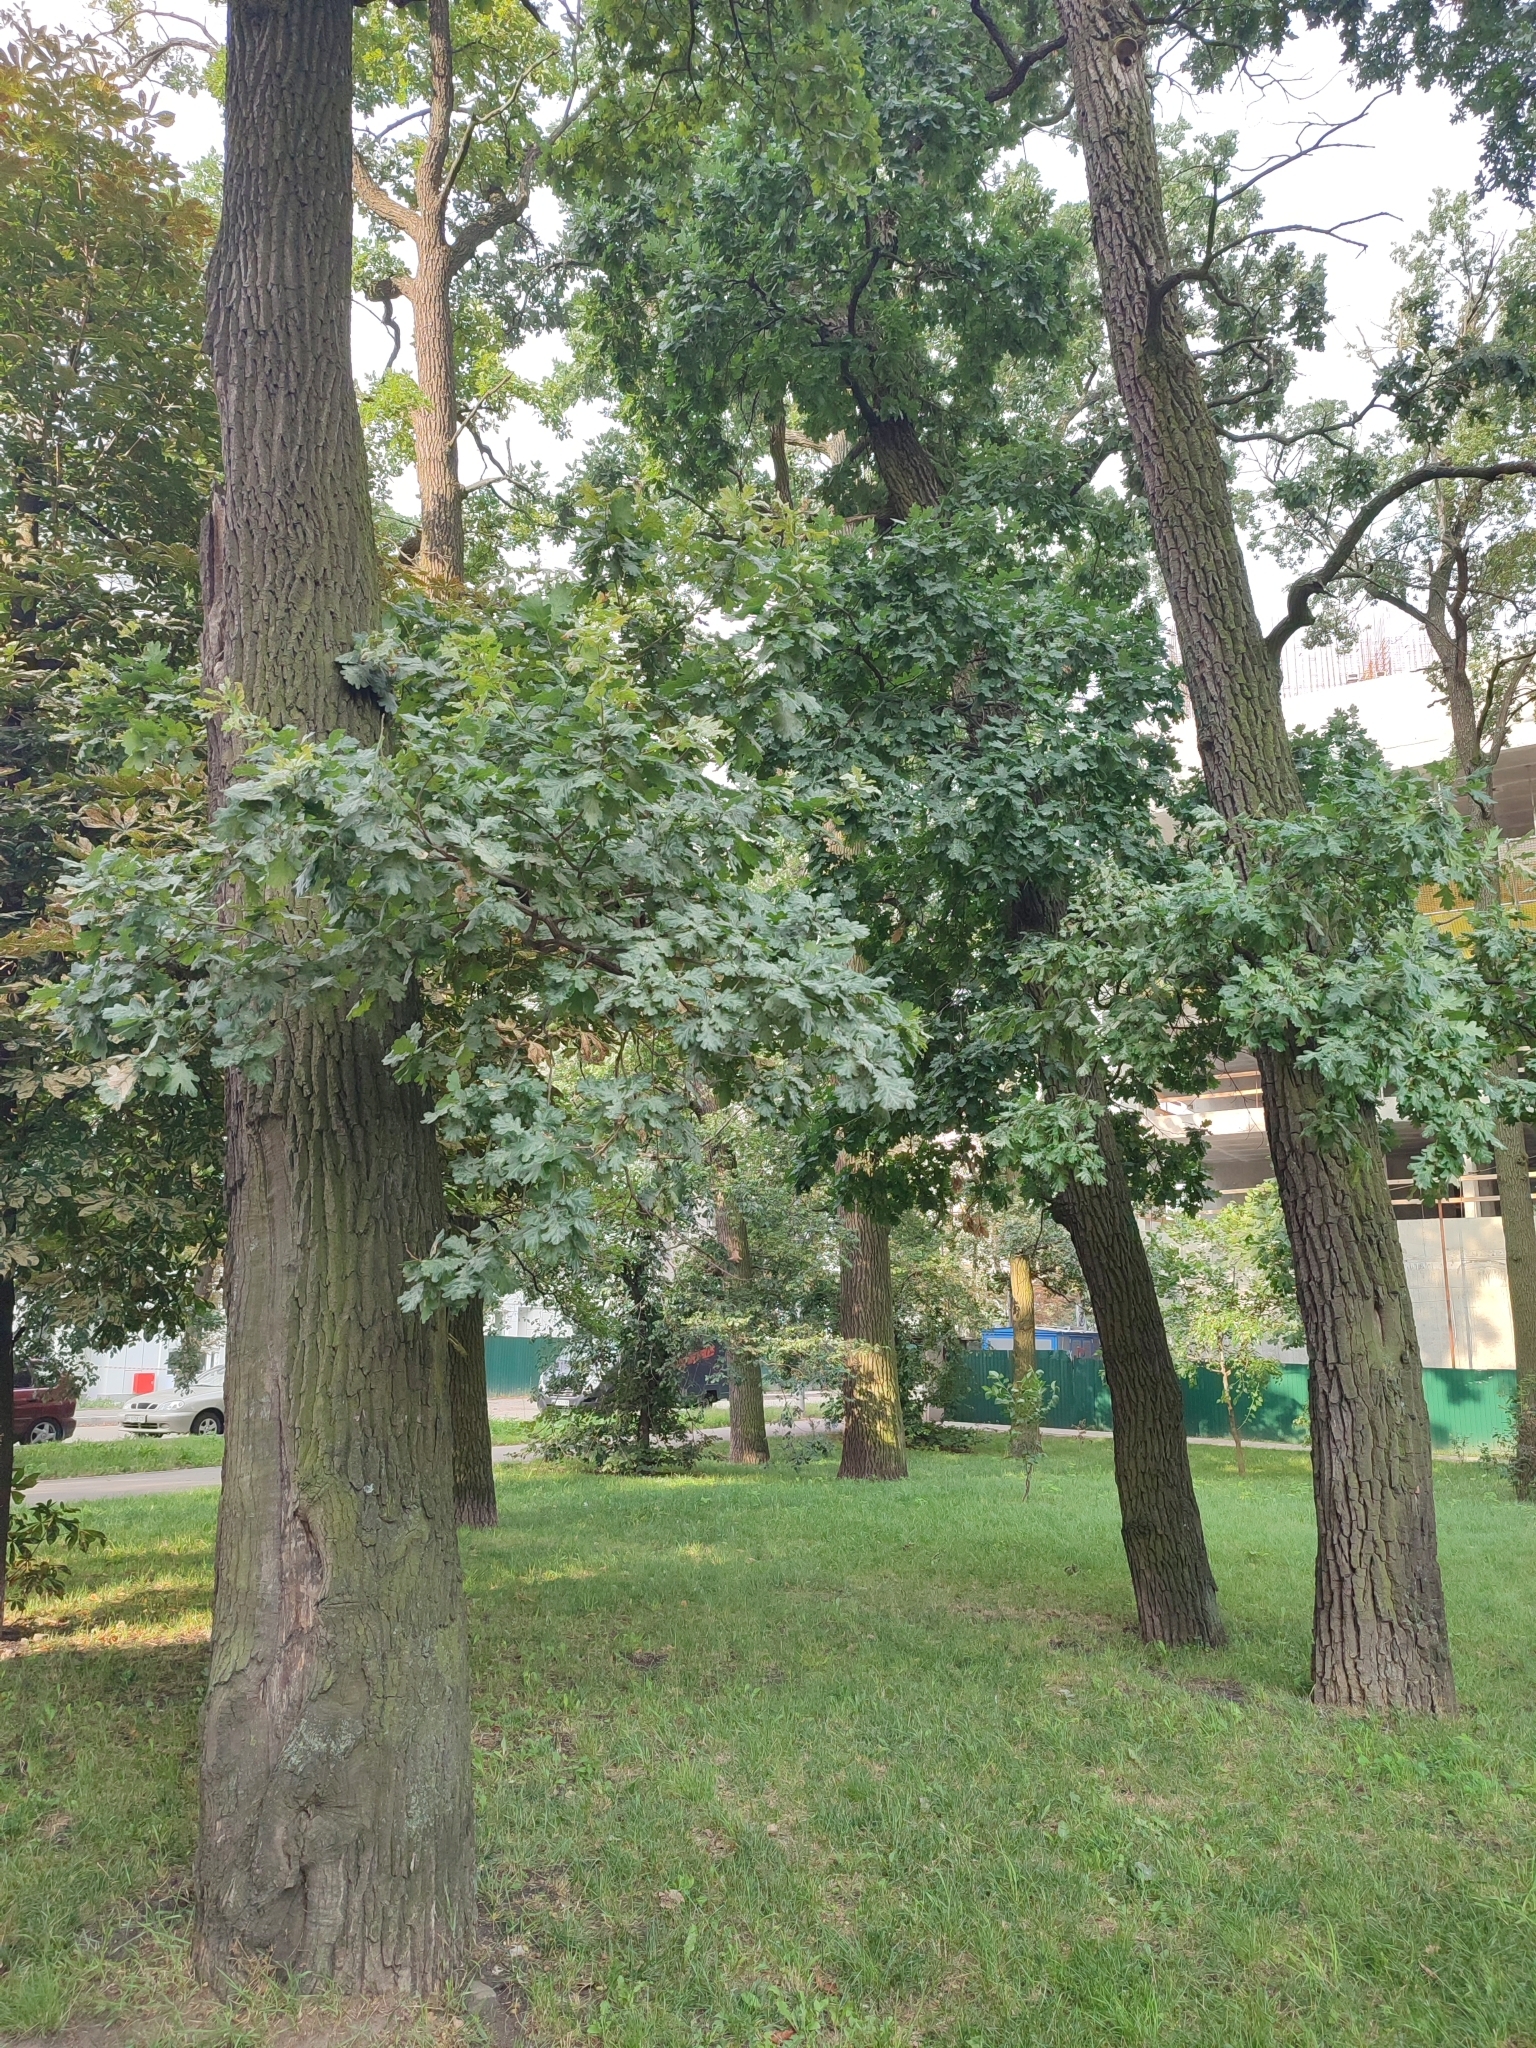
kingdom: Plantae
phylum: Tracheophyta
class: Magnoliopsida
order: Fagales
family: Fagaceae
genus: Quercus
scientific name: Quercus robur
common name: Pedunculate oak
